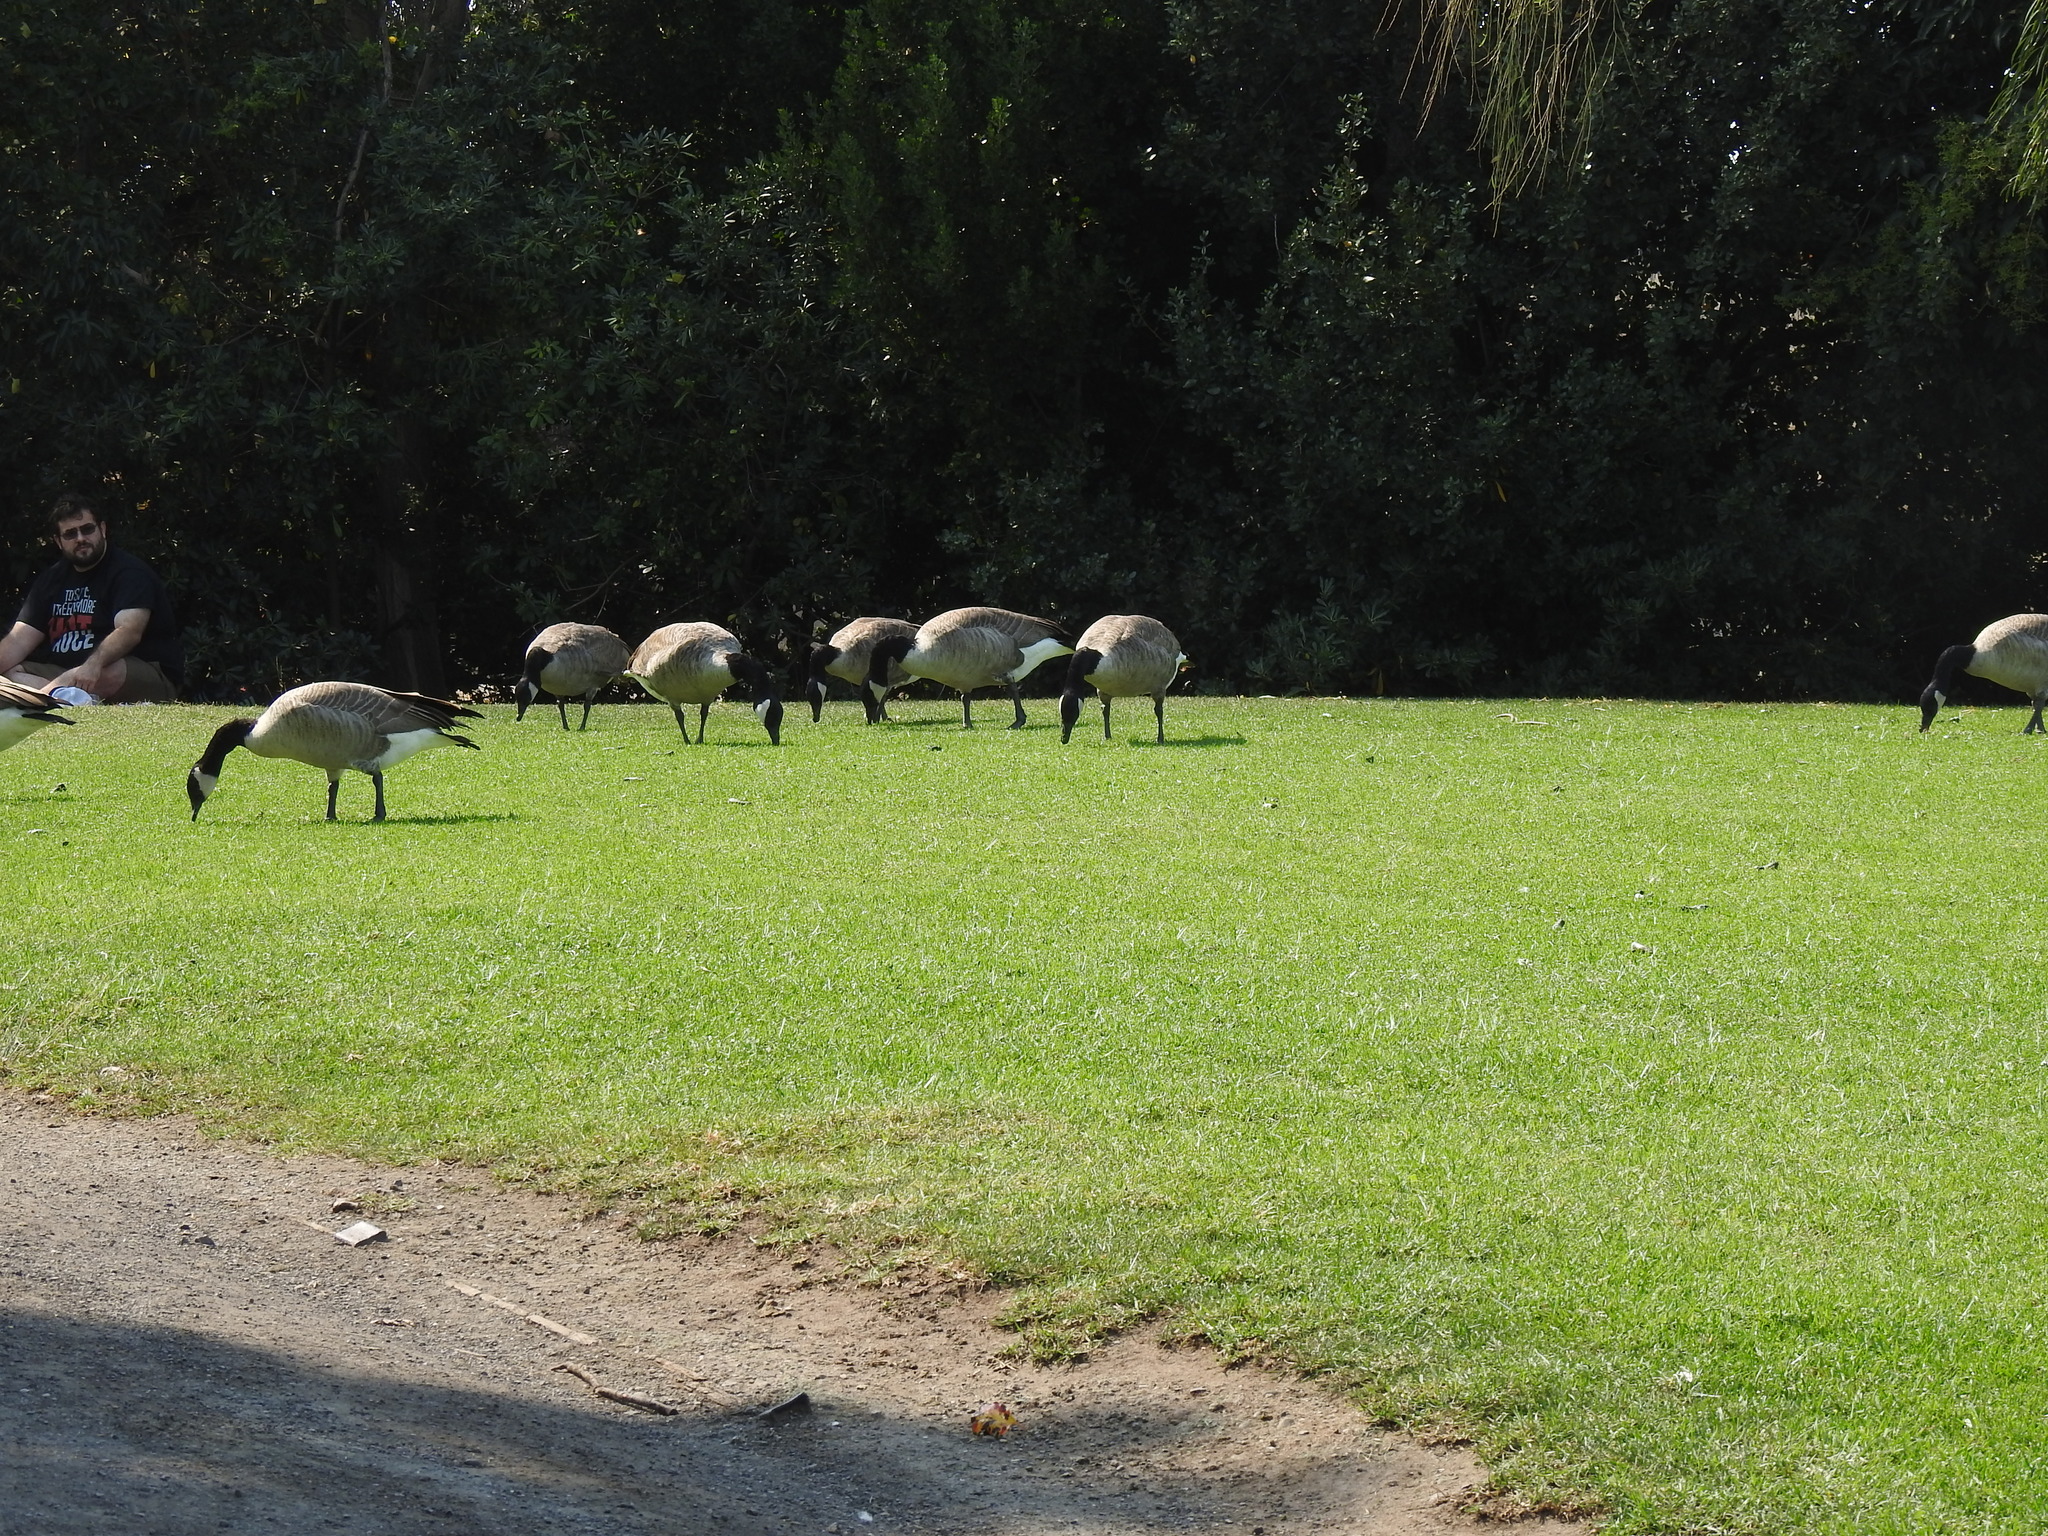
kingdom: Animalia
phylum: Chordata
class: Aves
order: Anseriformes
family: Anatidae
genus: Branta
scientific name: Branta canadensis
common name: Canada goose
